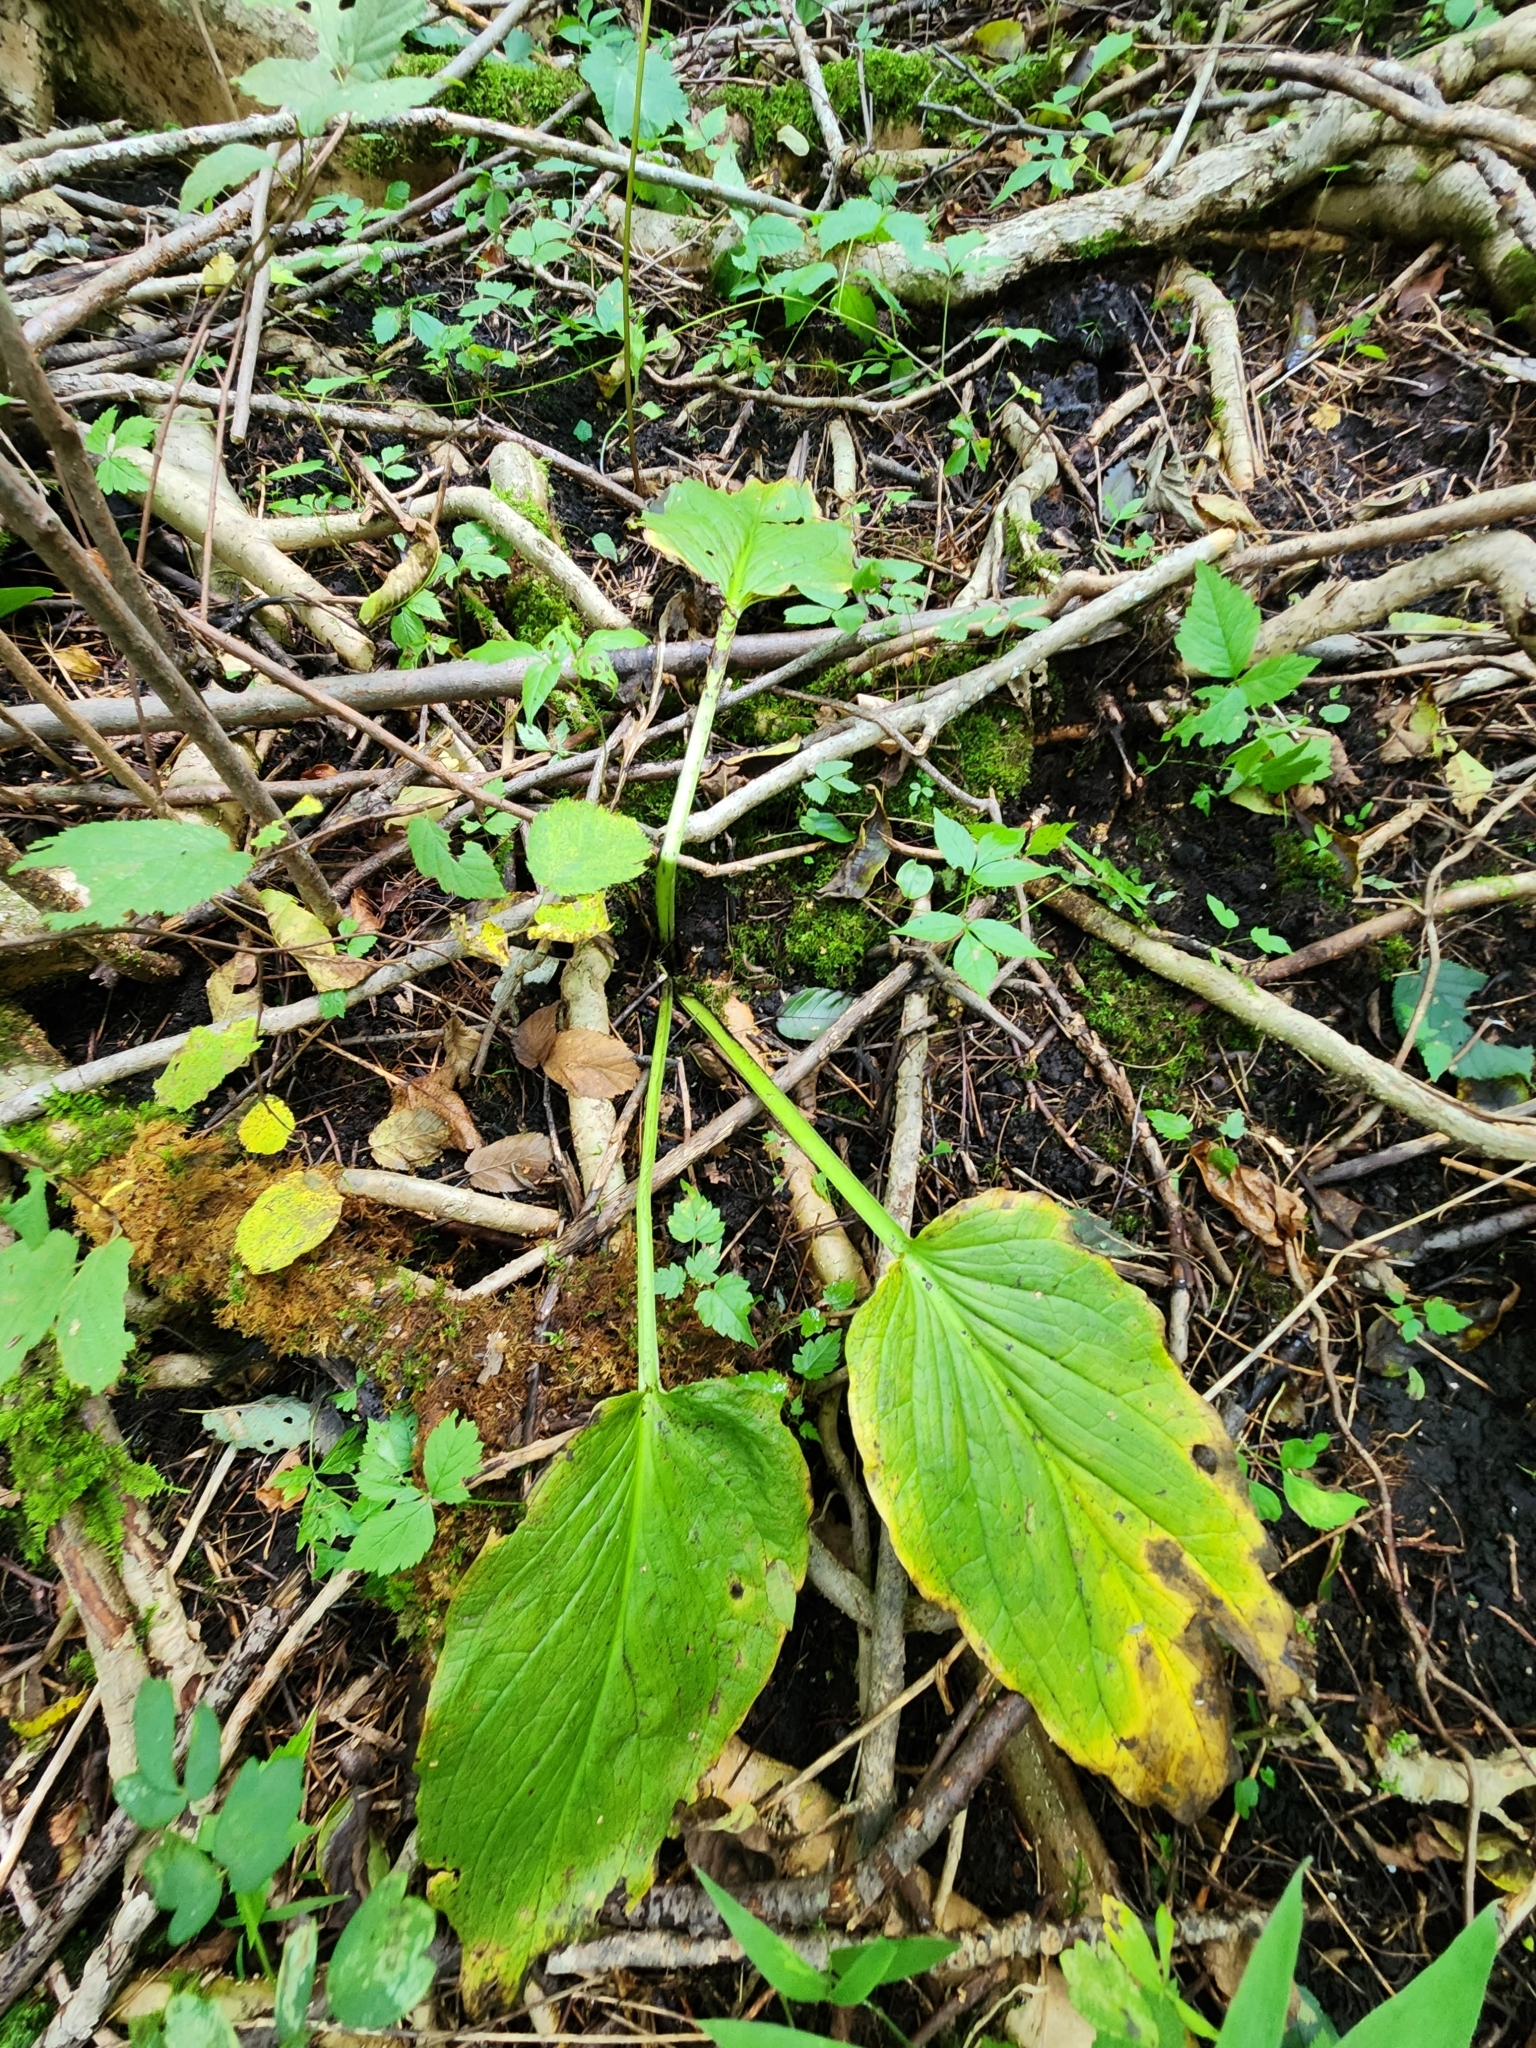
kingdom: Plantae
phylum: Tracheophyta
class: Liliopsida
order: Alismatales
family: Araceae
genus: Symplocarpus
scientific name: Symplocarpus foetidus
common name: Eastern skunk cabbage
